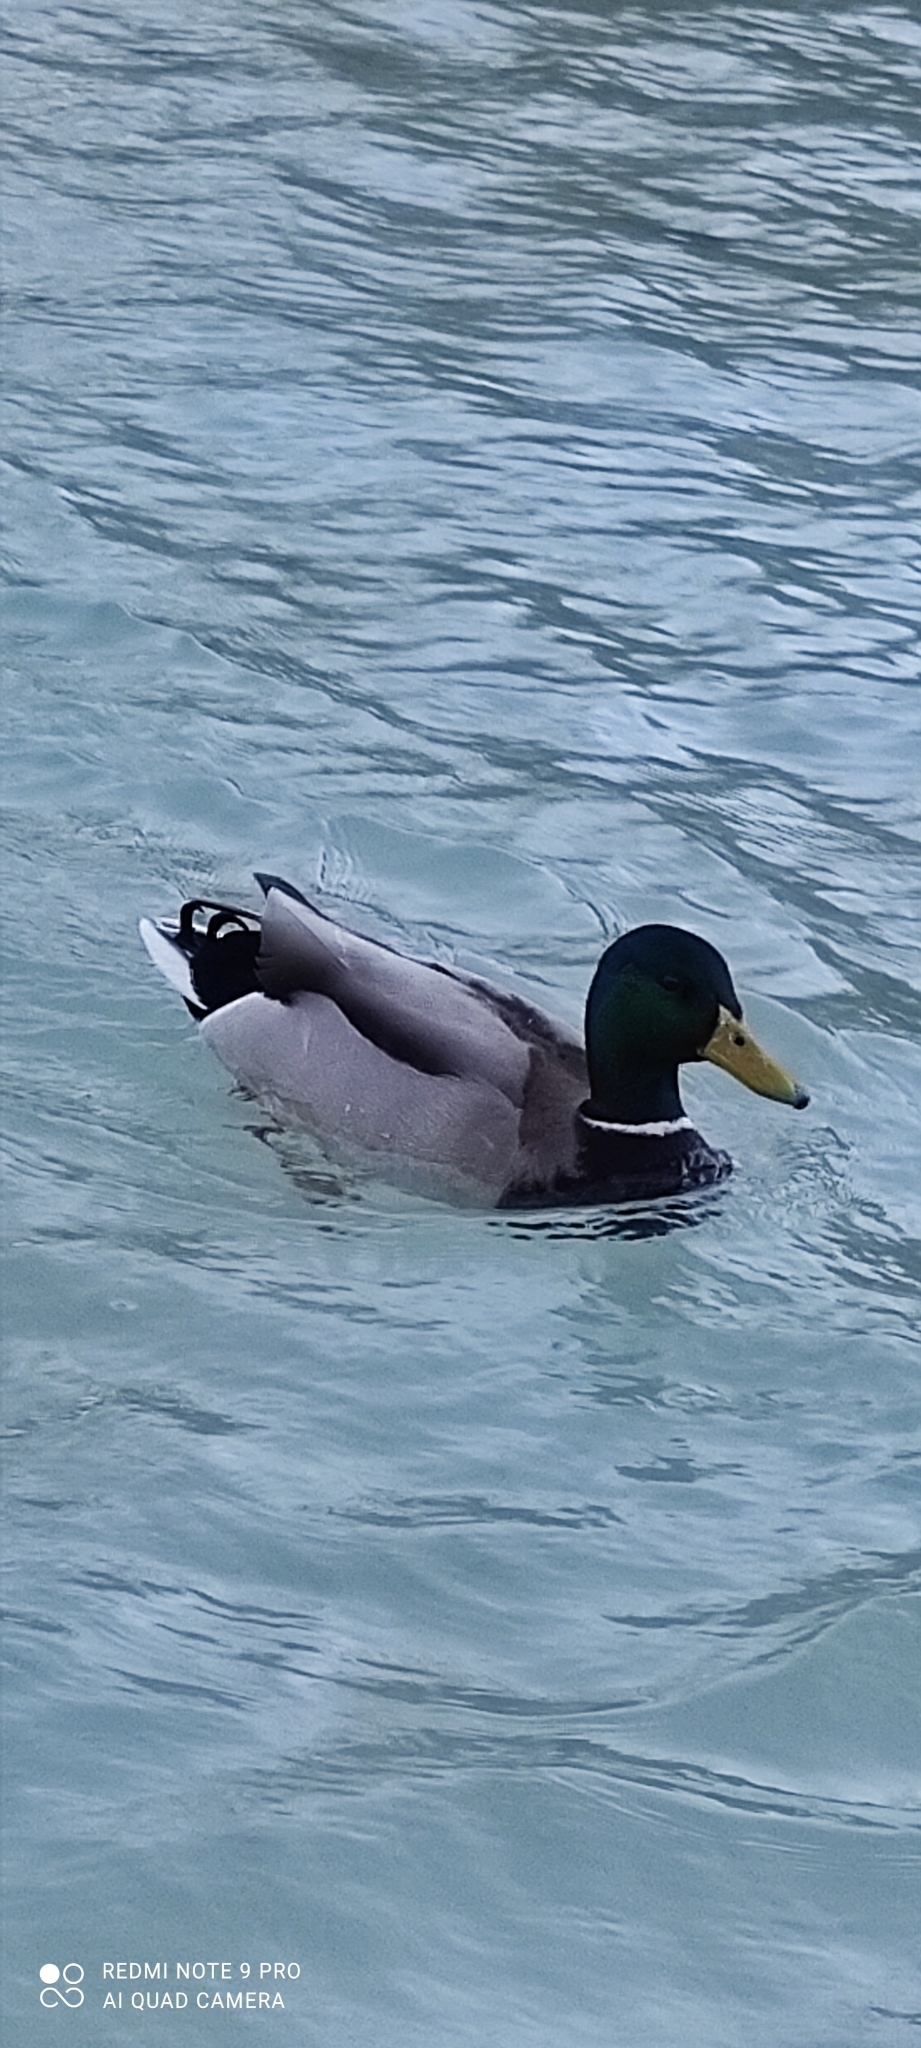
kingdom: Animalia
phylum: Chordata
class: Aves
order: Anseriformes
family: Anatidae
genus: Anas
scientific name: Anas platyrhynchos
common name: Mallard
